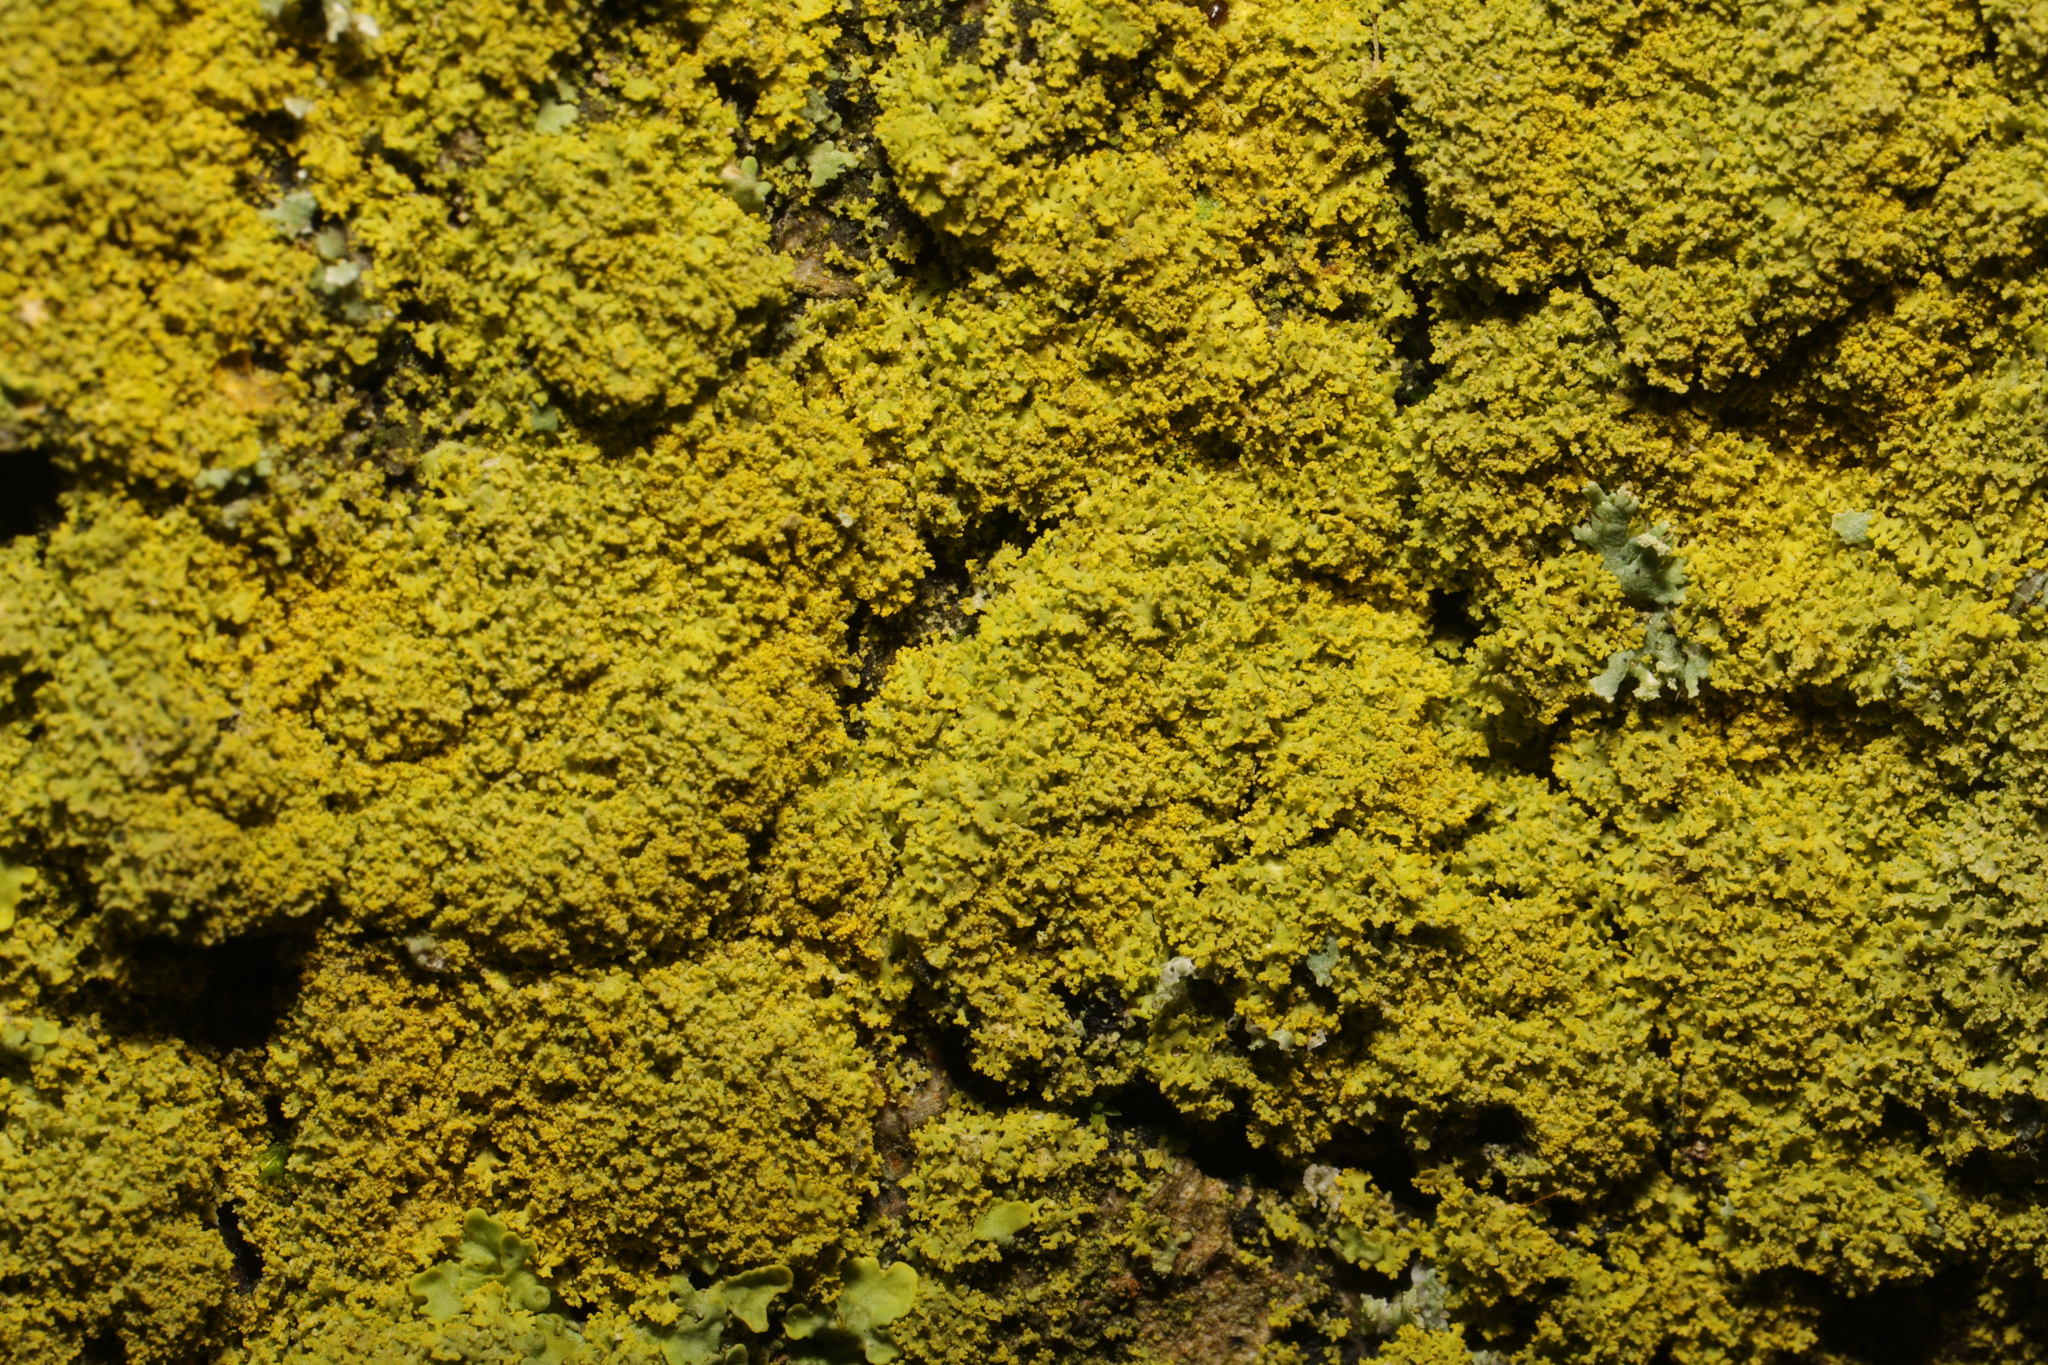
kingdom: Fungi
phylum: Ascomycota
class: Candelariomycetes
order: Candelariales
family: Candelariaceae
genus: Candelaria
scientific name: Candelaria concolor
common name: Candleflame lichen
